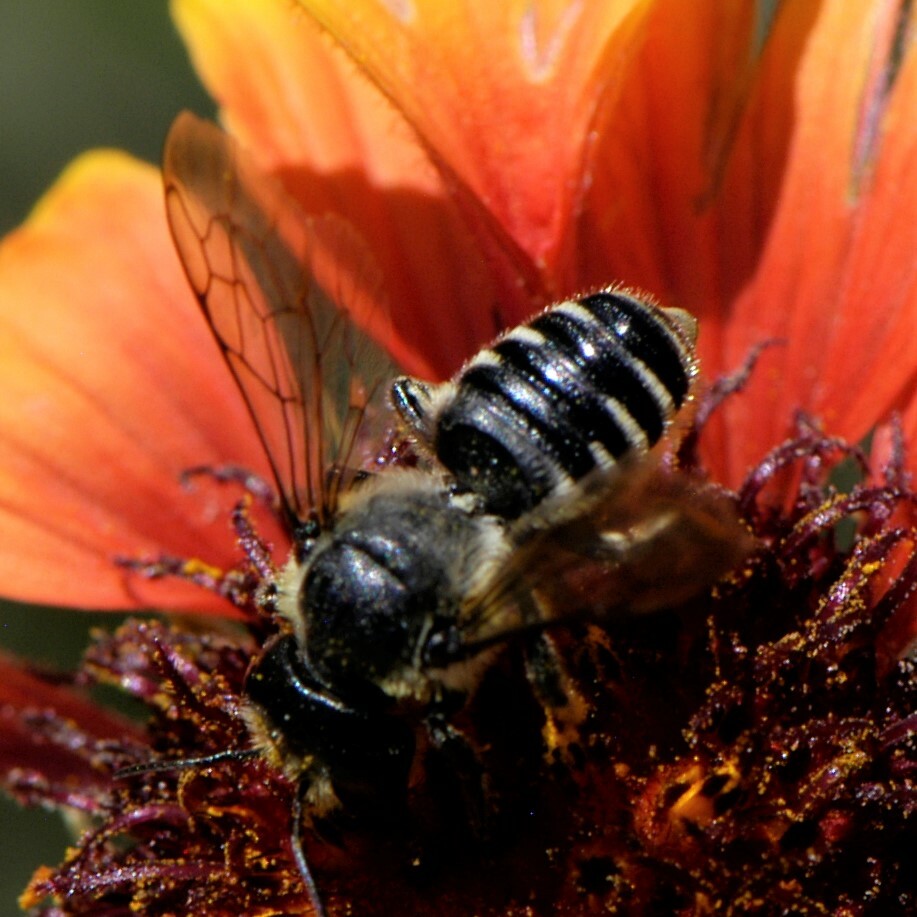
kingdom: Animalia
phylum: Arthropoda
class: Insecta
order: Hymenoptera
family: Megachilidae
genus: Megachile
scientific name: Megachile
